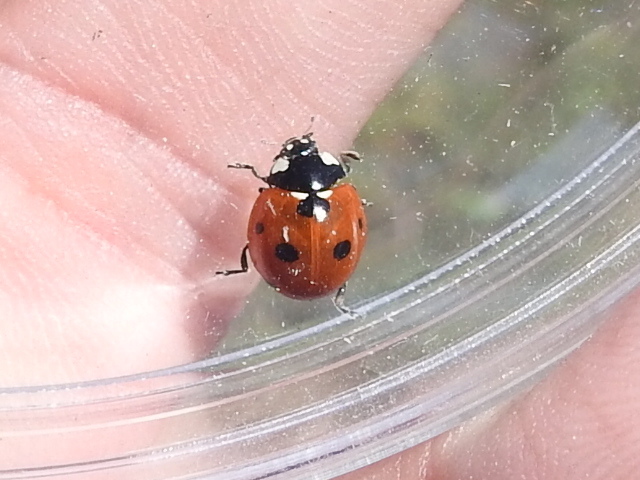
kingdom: Animalia
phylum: Arthropoda
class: Insecta
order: Coleoptera
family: Coccinellidae
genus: Coccinella
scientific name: Coccinella septempunctata
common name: Sevenspotted lady beetle
